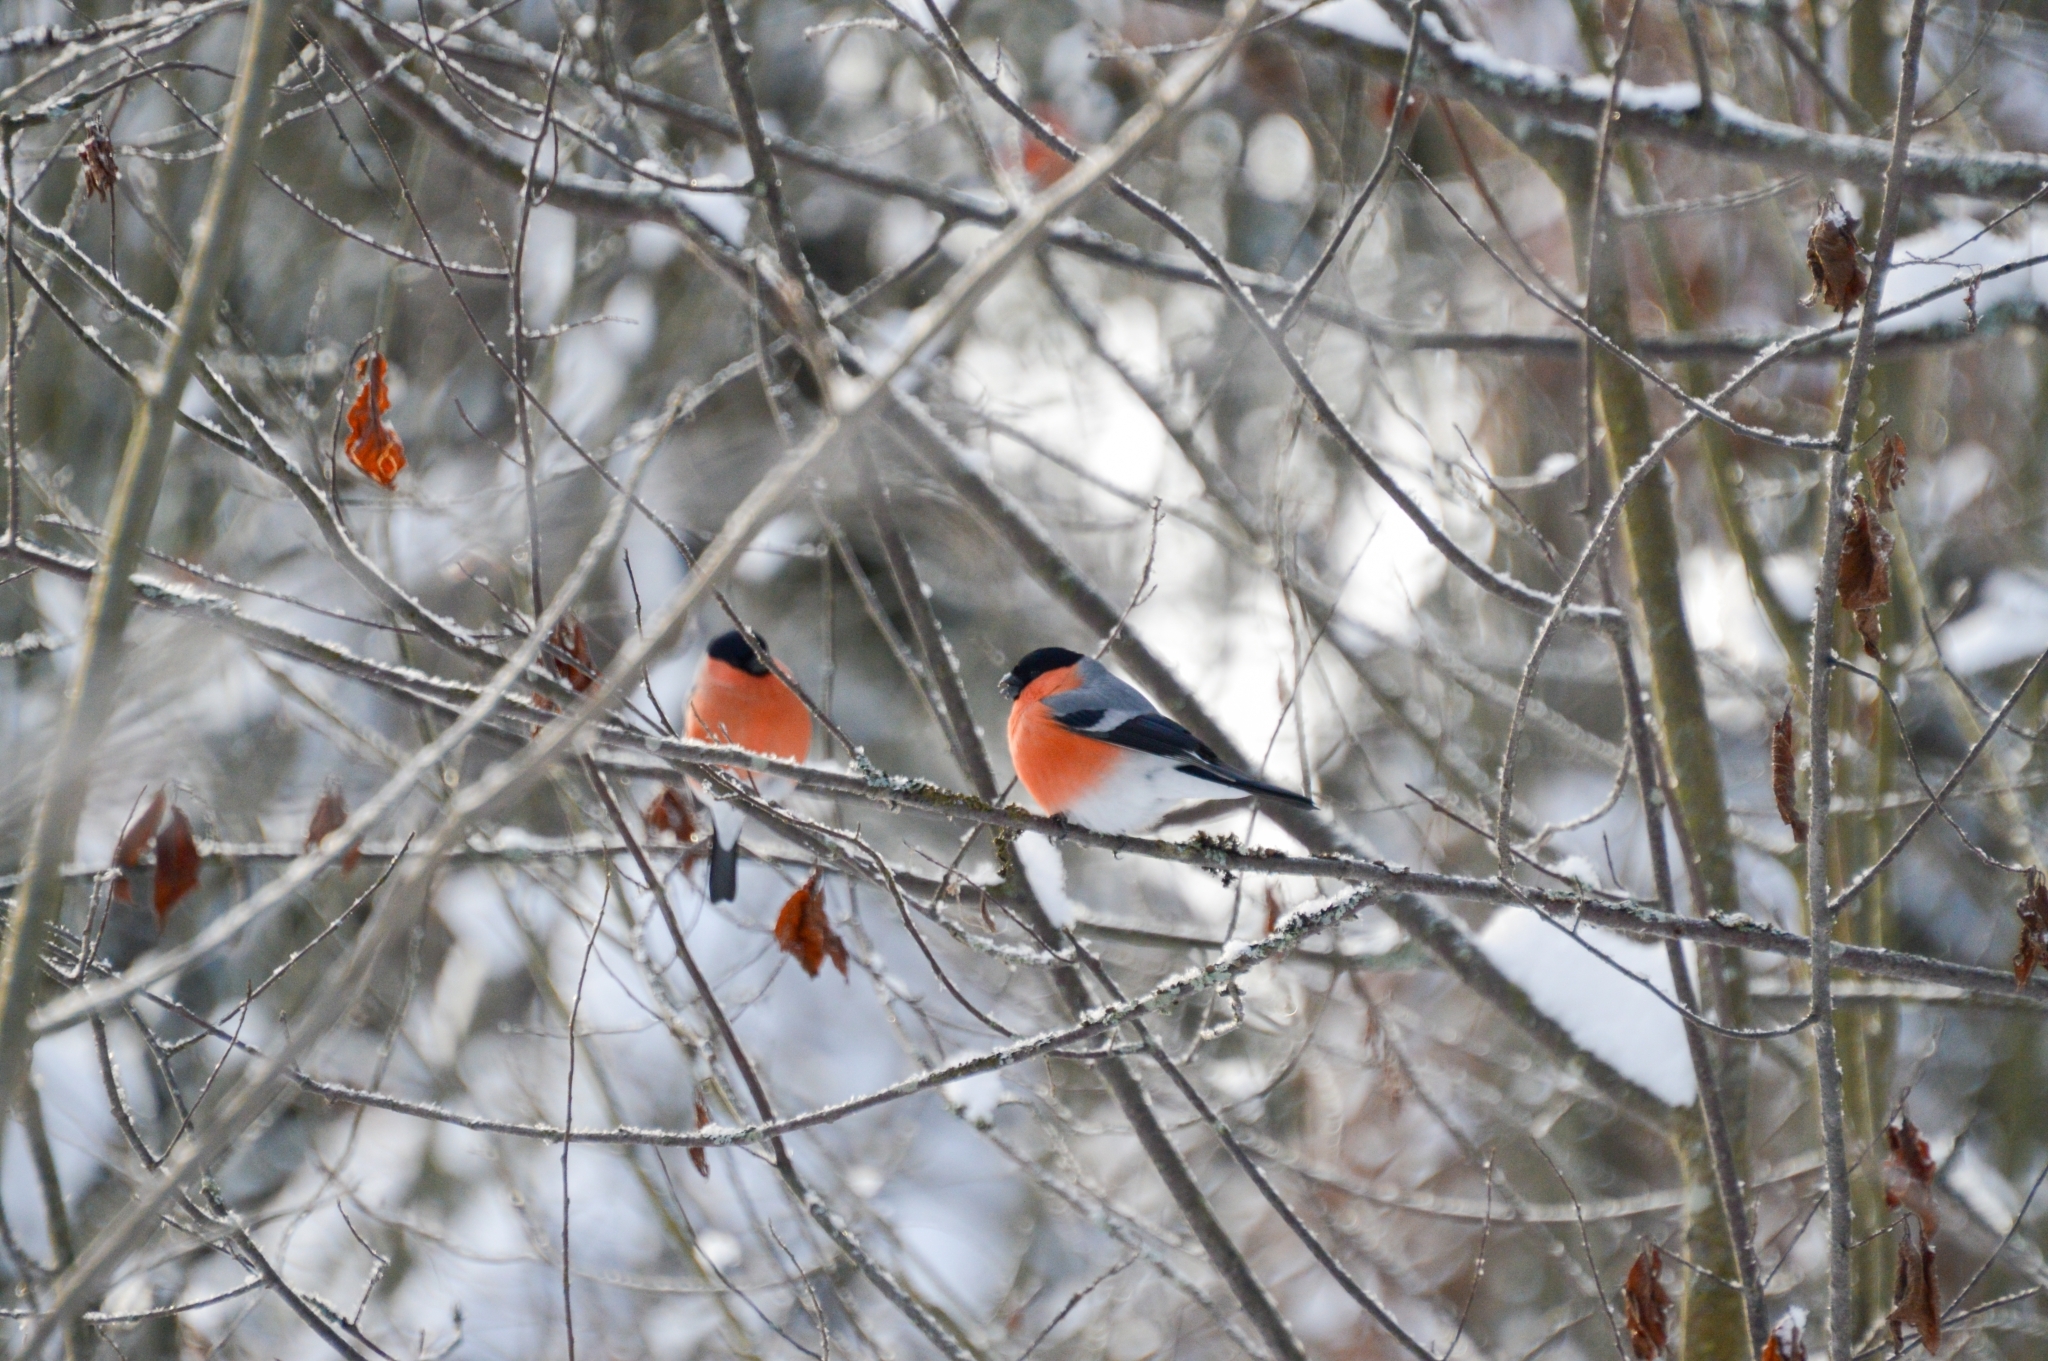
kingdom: Animalia
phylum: Chordata
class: Aves
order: Passeriformes
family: Fringillidae
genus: Pyrrhula
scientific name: Pyrrhula pyrrhula
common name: Eurasian bullfinch
